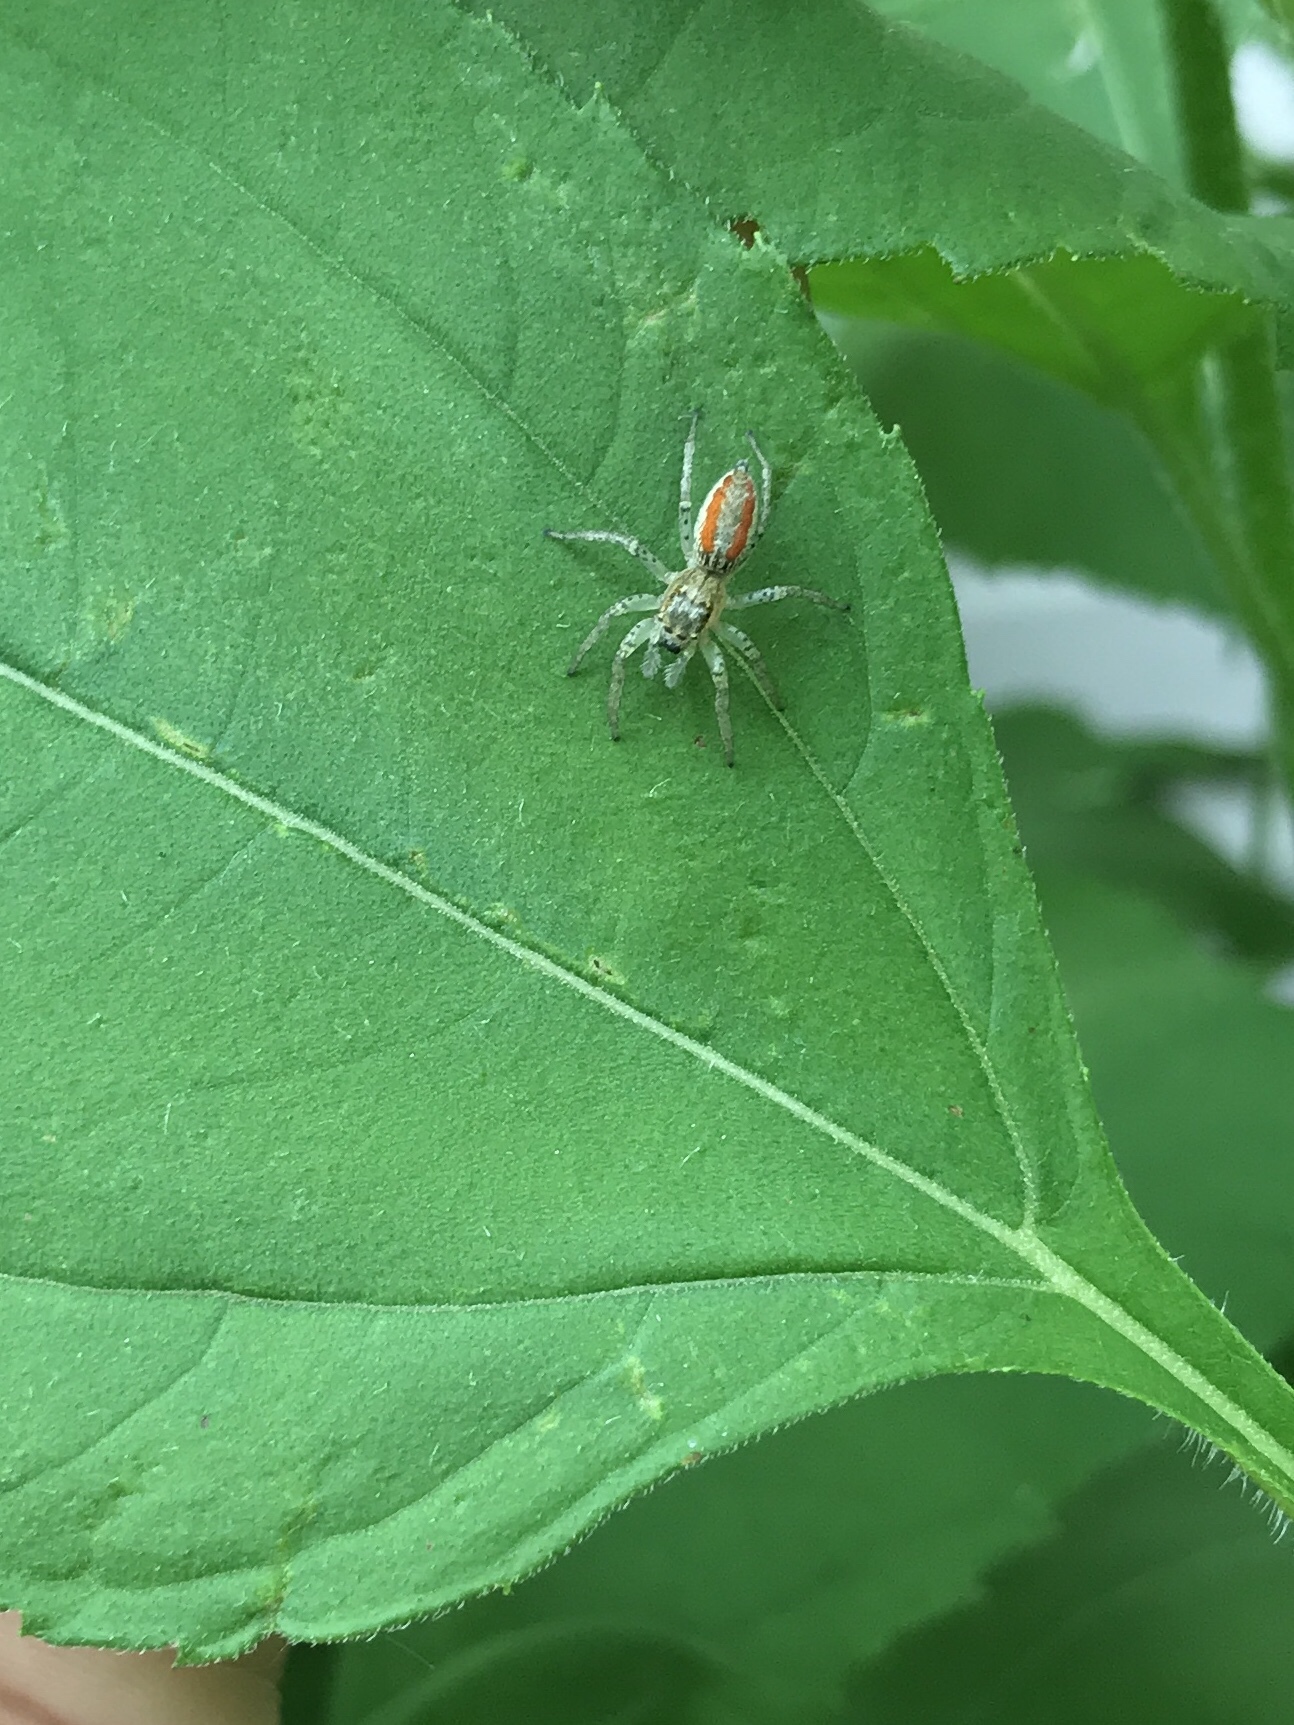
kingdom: Animalia
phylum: Arthropoda
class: Arachnida
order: Araneae
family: Salticidae
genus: Maevia
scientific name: Maevia inclemens
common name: Dimorphic jumper
